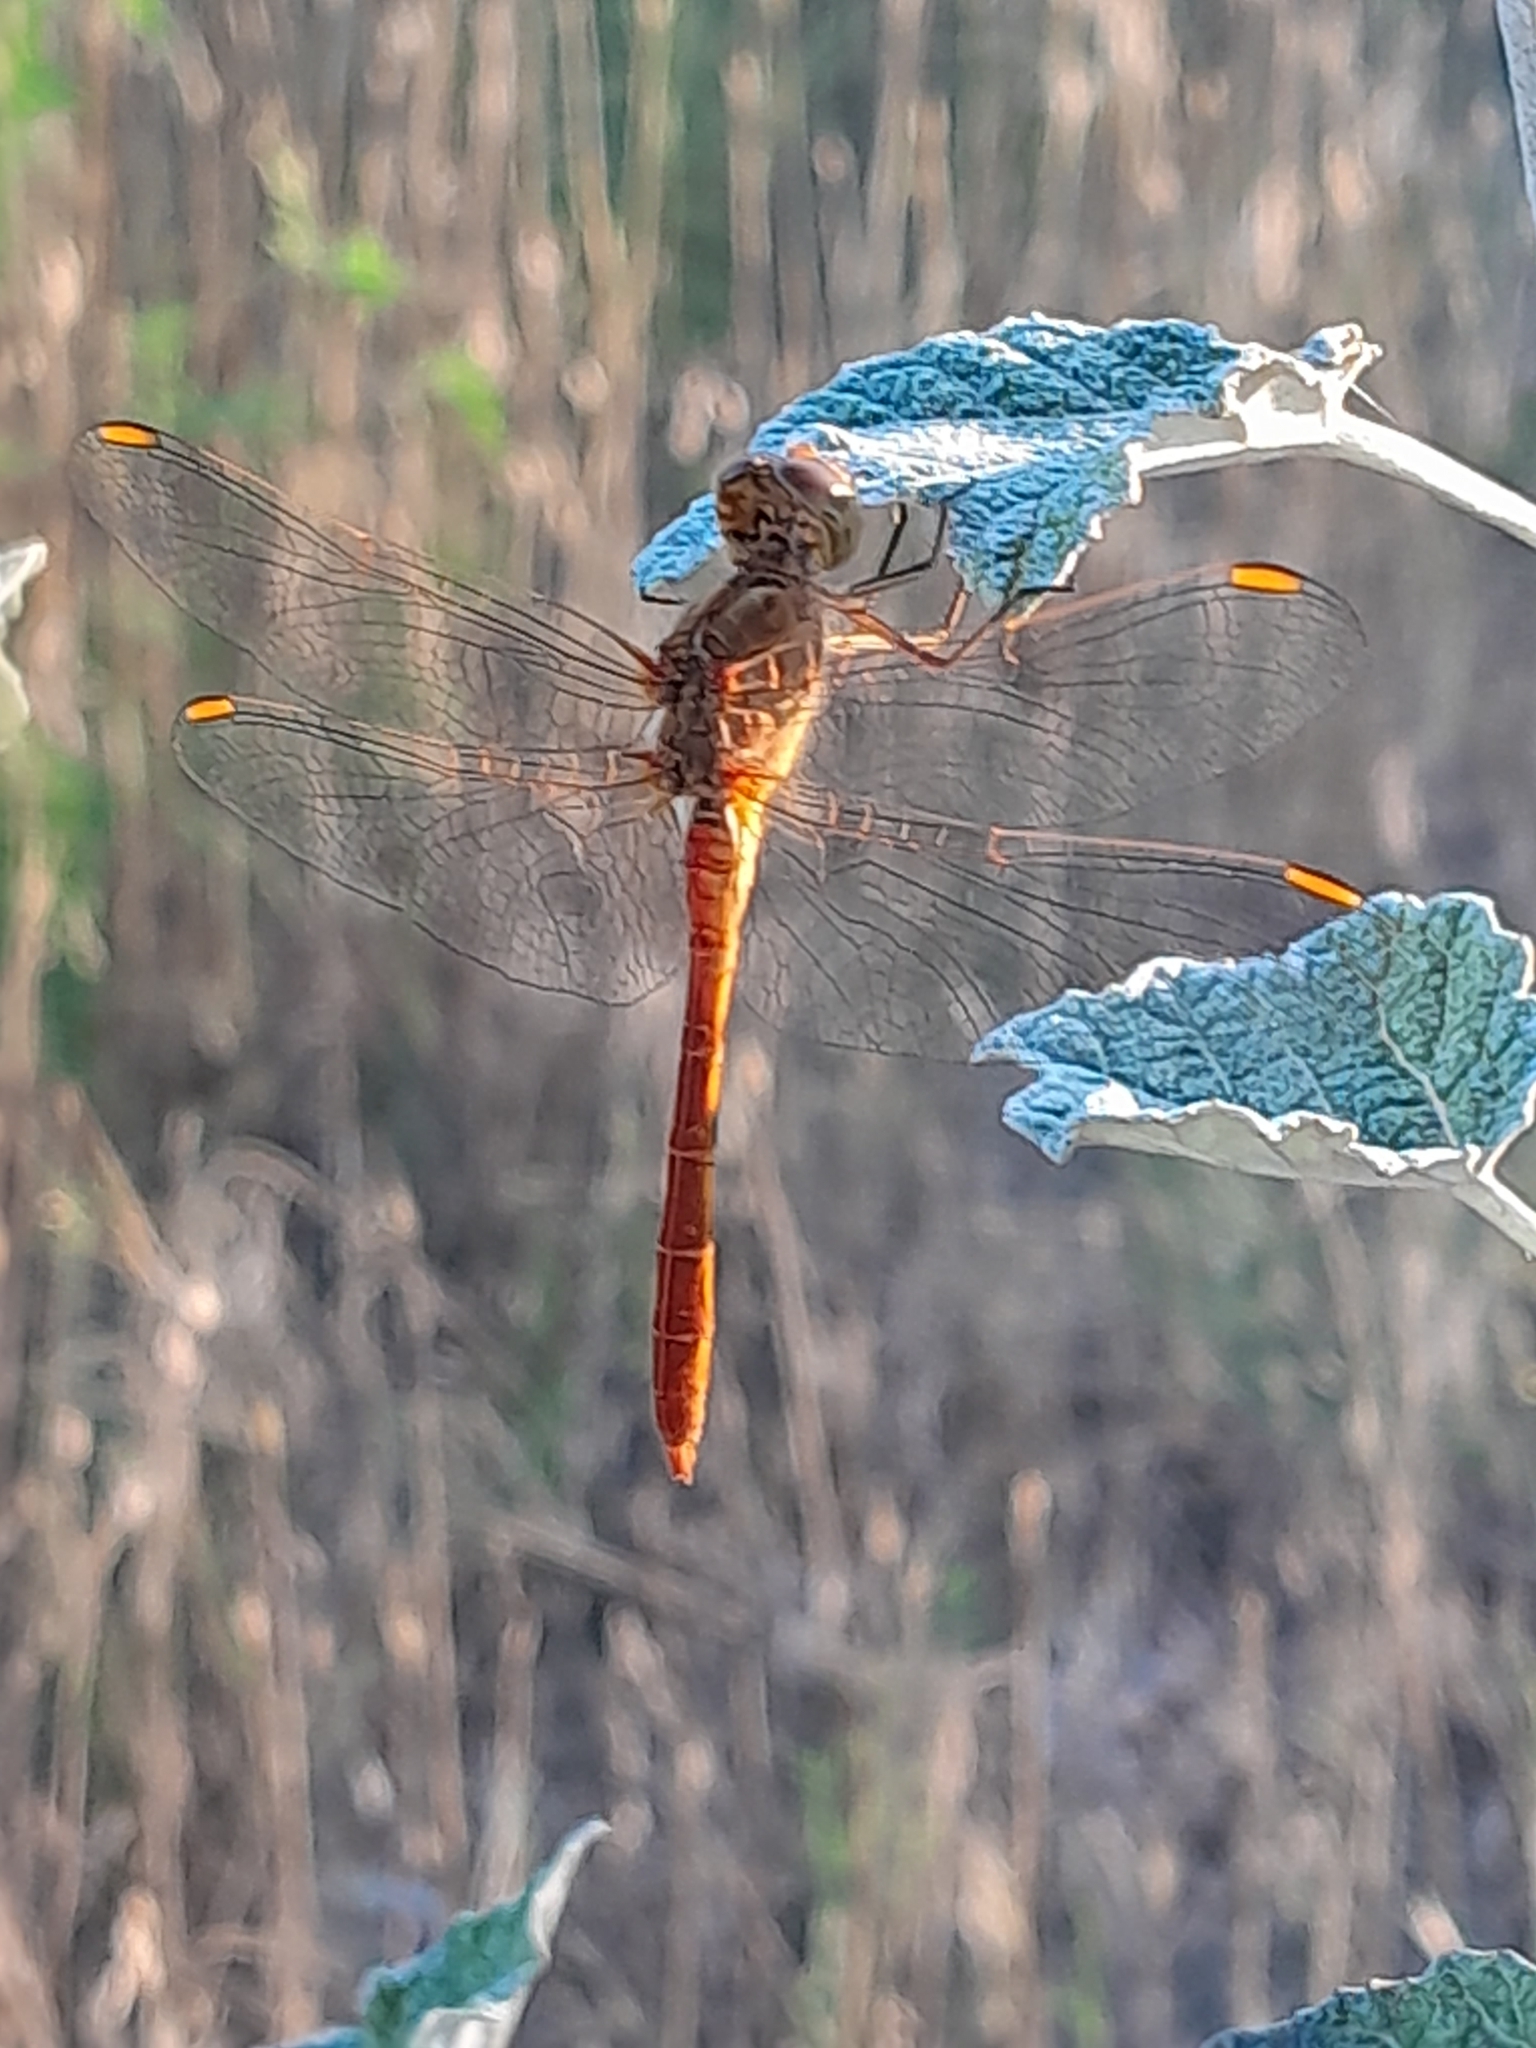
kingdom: Animalia
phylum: Arthropoda
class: Insecta
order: Odonata
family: Libellulidae
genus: Sympetrum
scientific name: Sympetrum meridionale
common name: Southern darter
